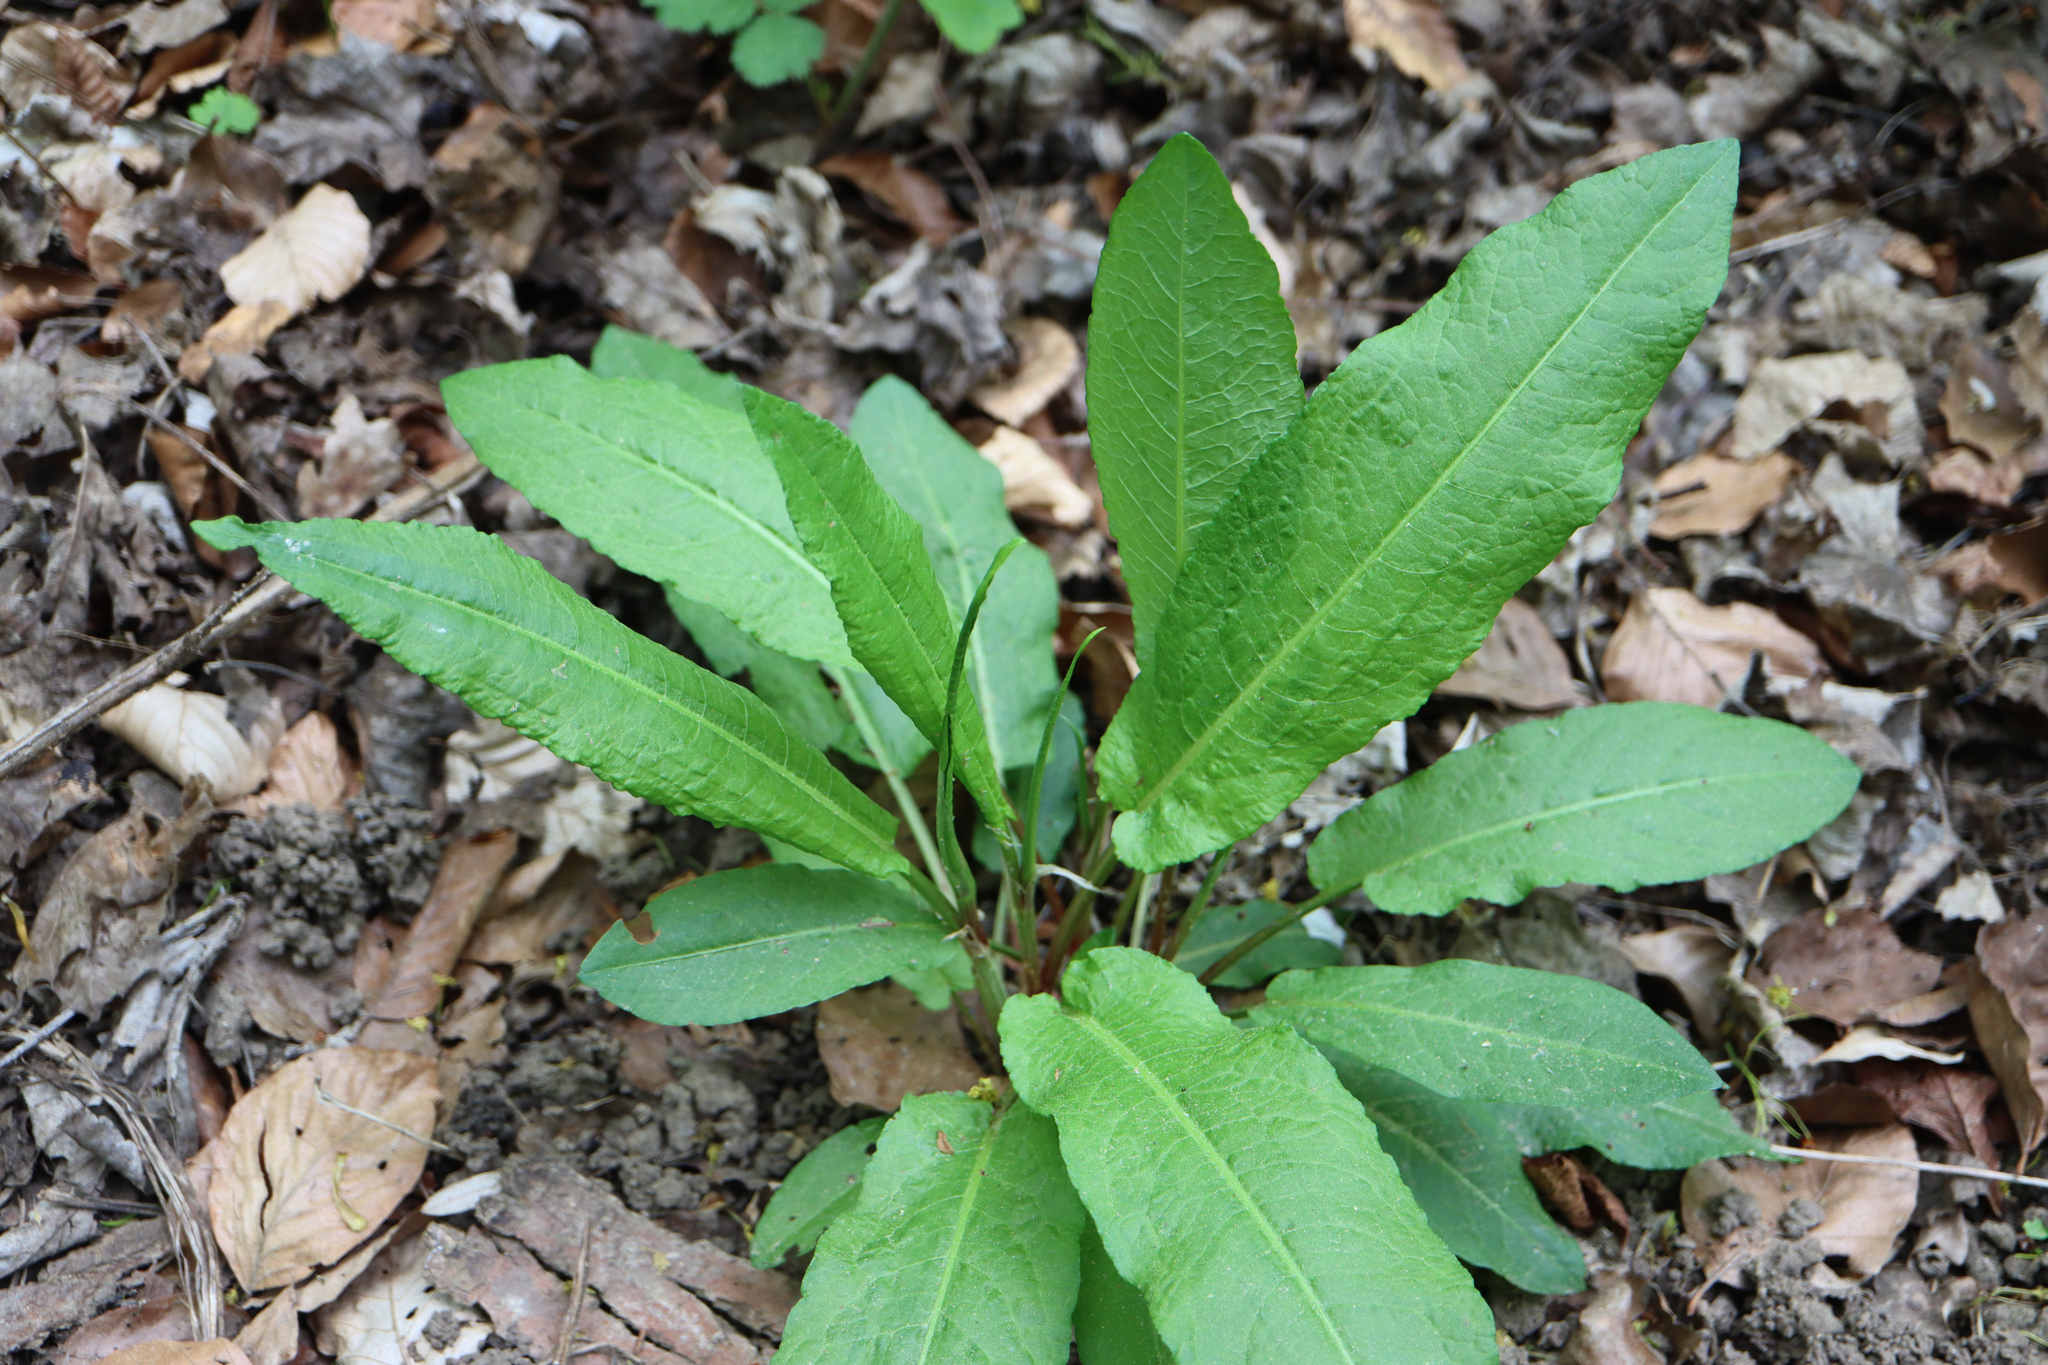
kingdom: Plantae
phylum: Tracheophyta
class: Magnoliopsida
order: Caryophyllales
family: Polygonaceae
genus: Rumex
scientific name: Rumex sanguineus
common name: Wood dock
